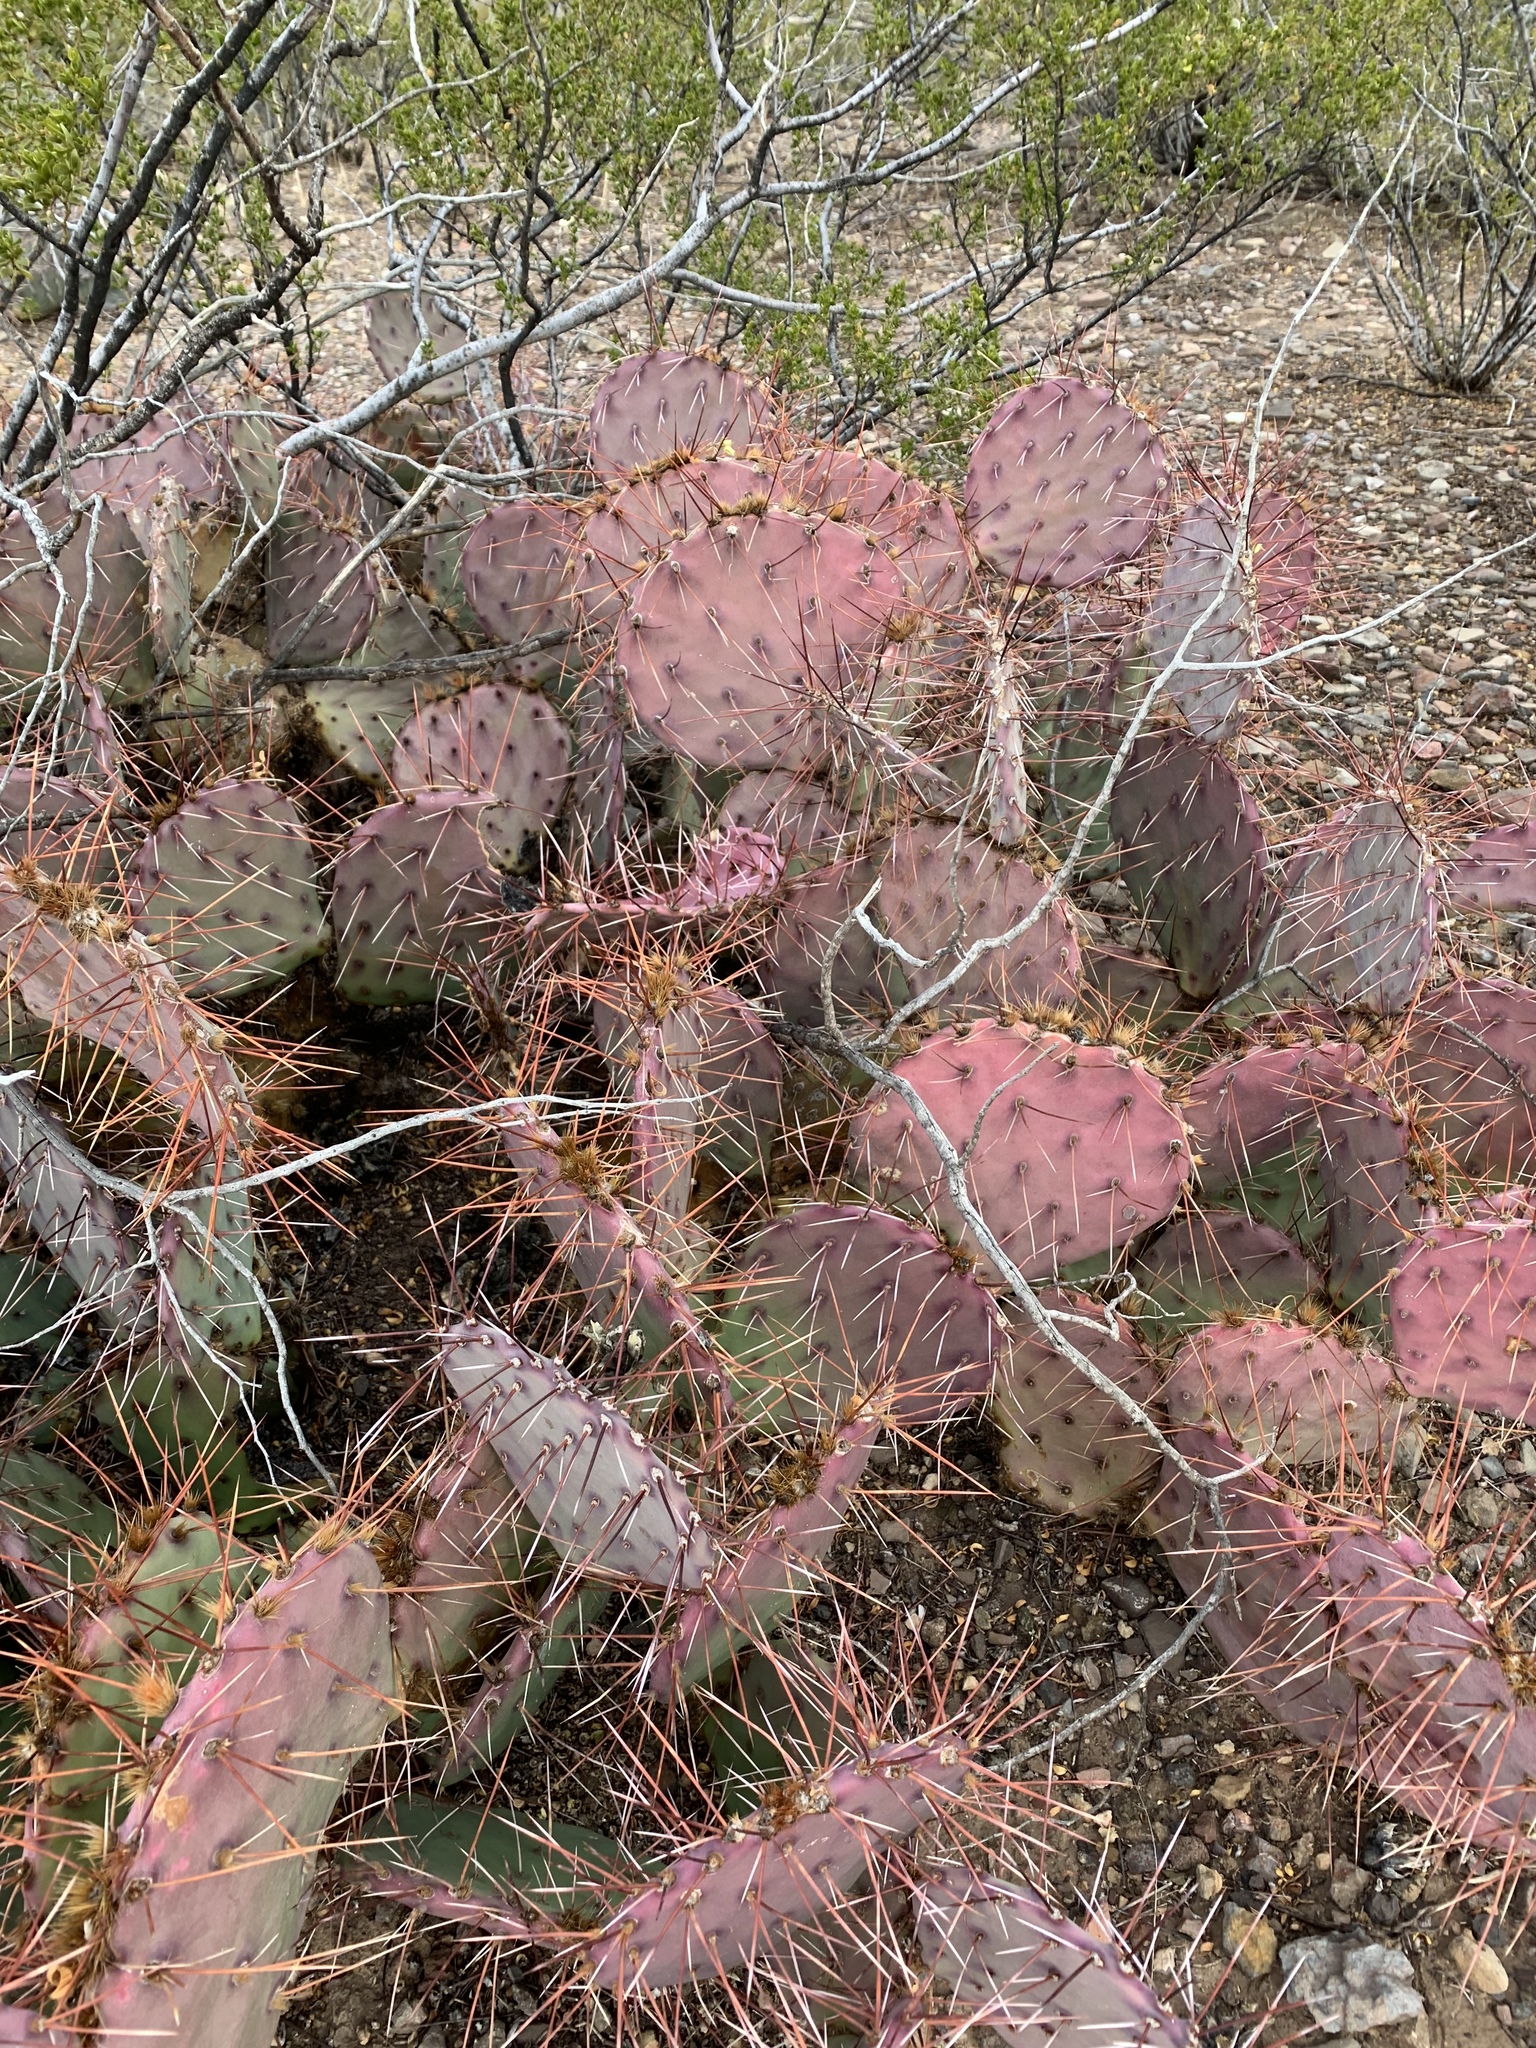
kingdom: Plantae
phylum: Tracheophyta
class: Magnoliopsida
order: Caryophyllales
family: Cactaceae
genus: Opuntia
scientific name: Opuntia macrocentra
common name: Purple prickly-pear
